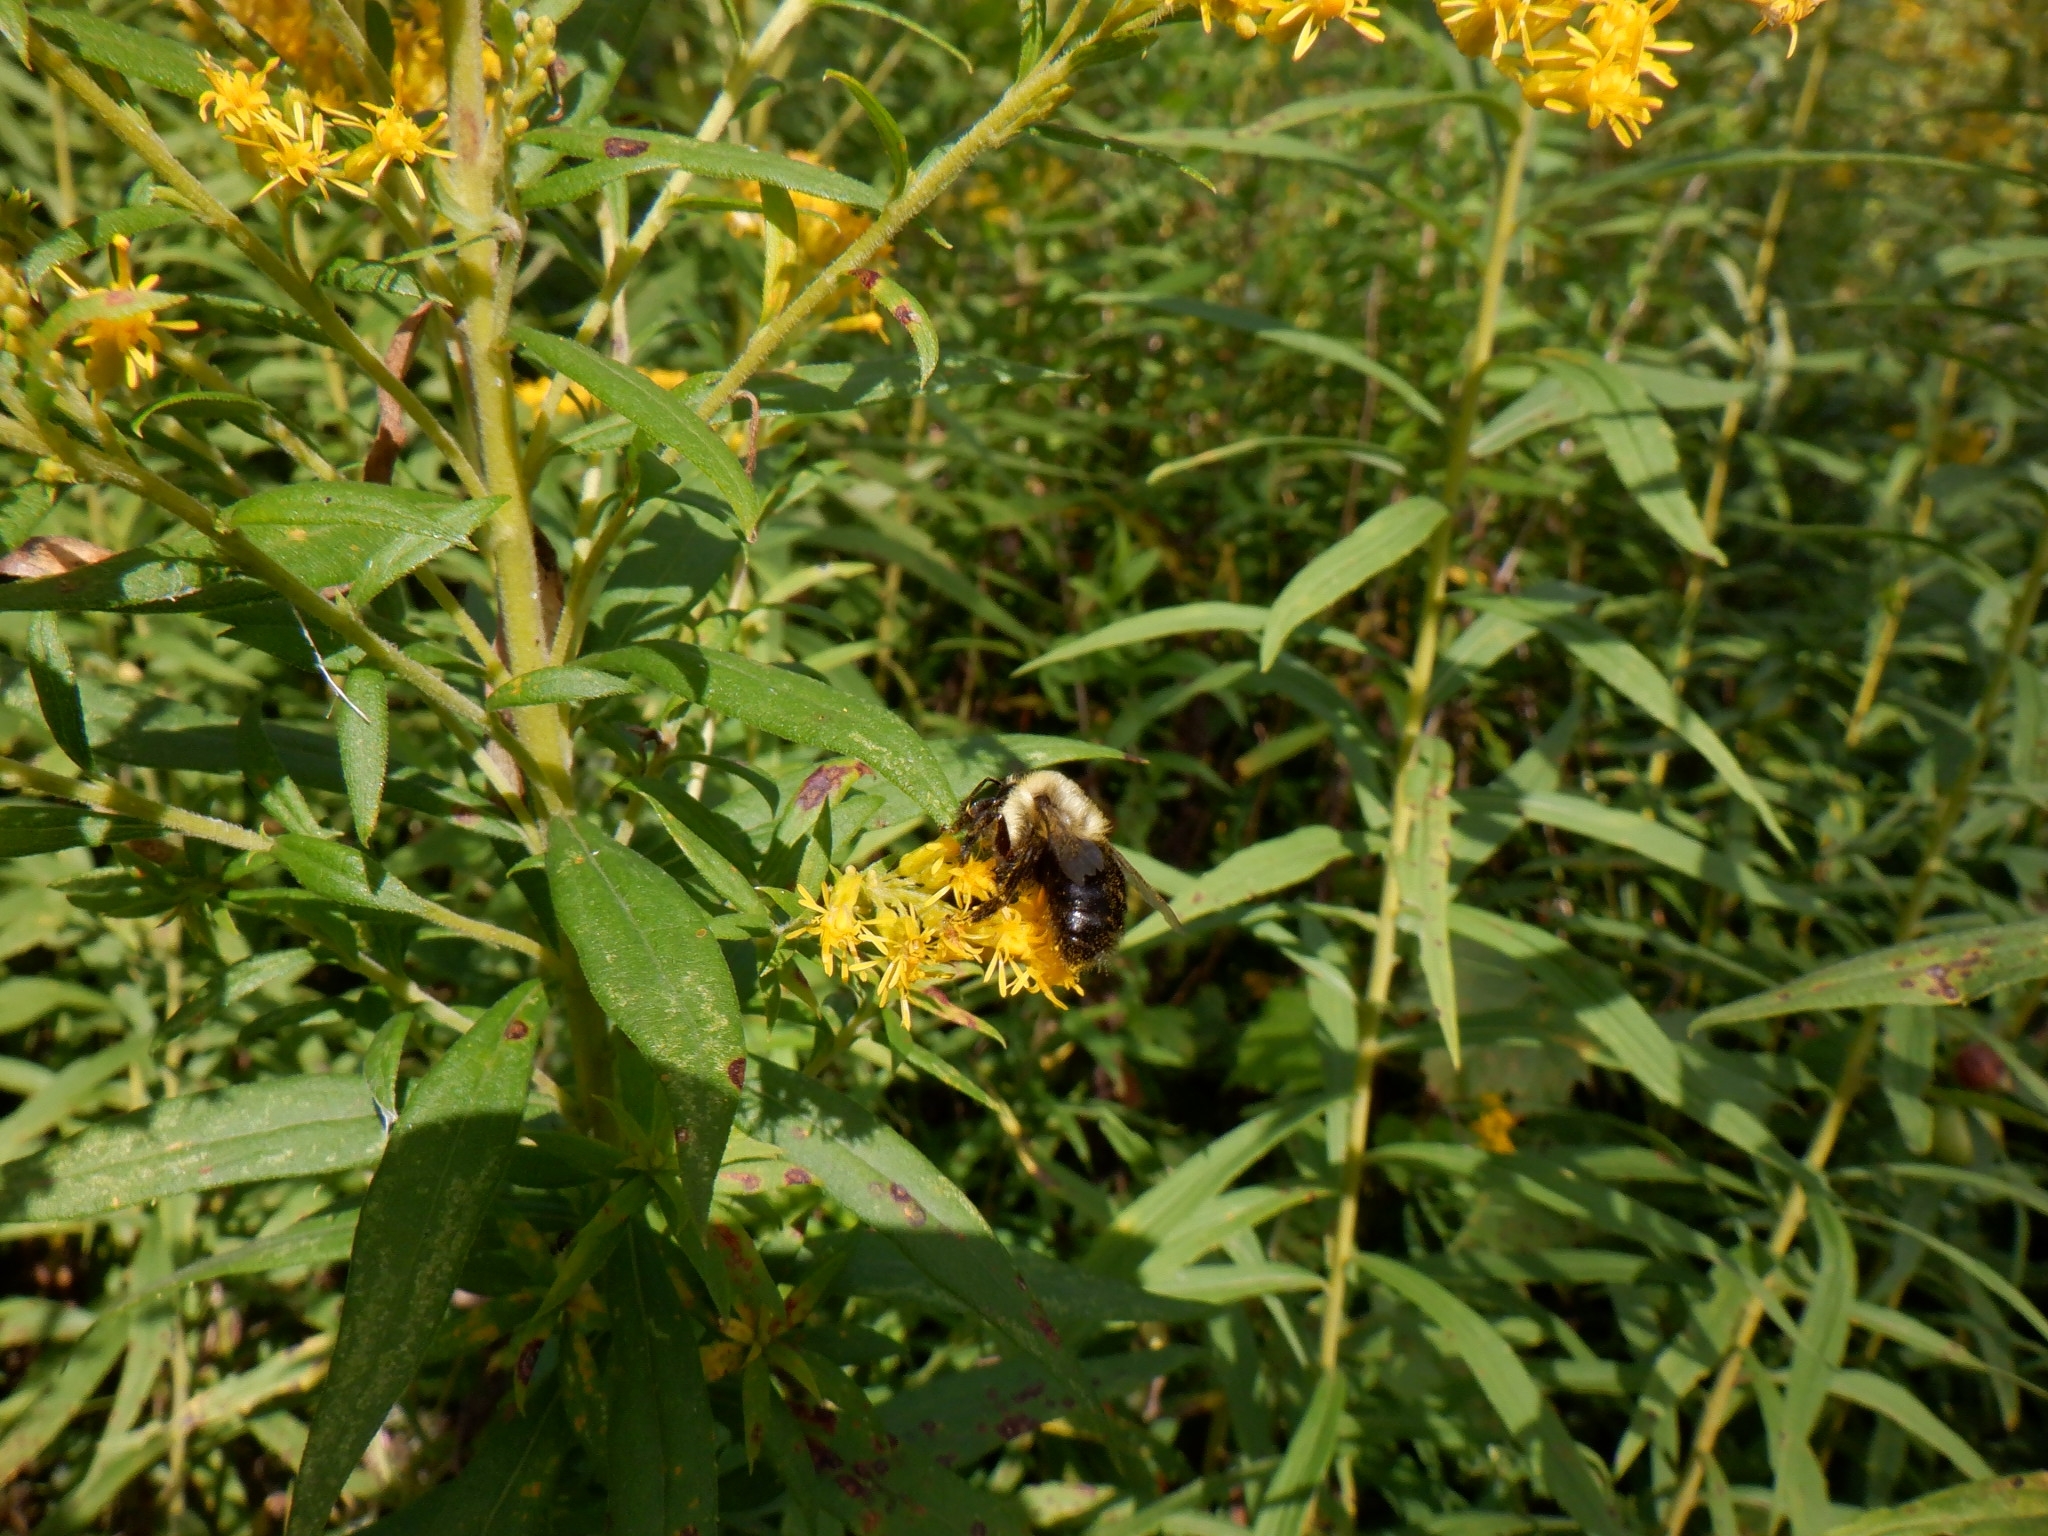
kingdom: Animalia
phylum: Arthropoda
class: Insecta
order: Hymenoptera
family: Apidae
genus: Bombus
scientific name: Bombus impatiens
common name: Common eastern bumble bee
